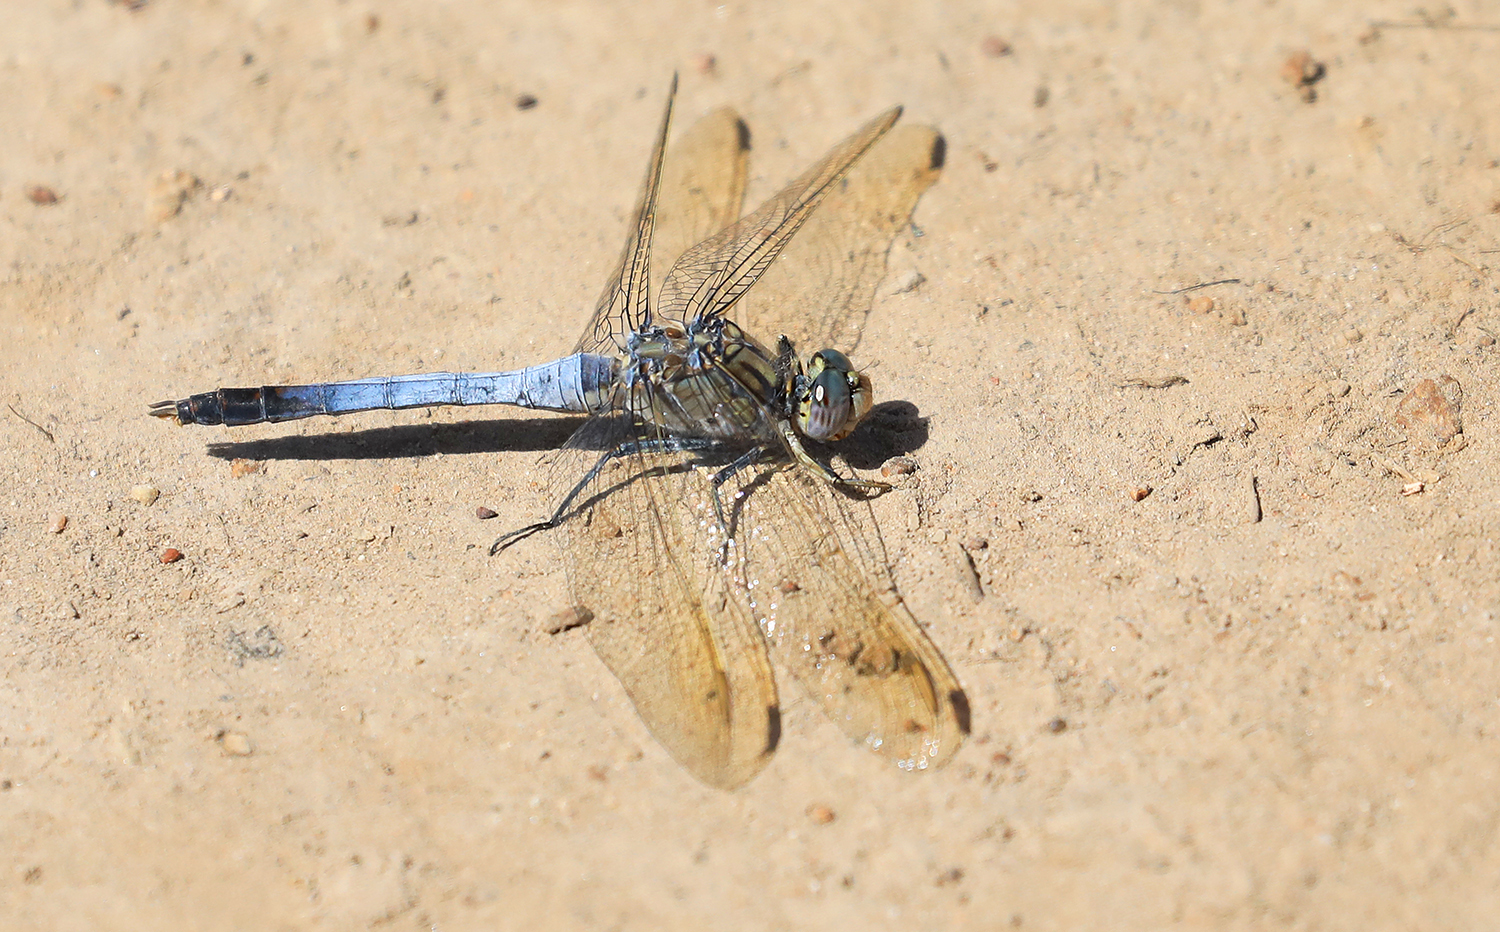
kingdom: Animalia
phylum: Arthropoda
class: Insecta
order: Odonata
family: Libellulidae
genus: Orthetrum
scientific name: Orthetrum caledonicum
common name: Blue skimmer
